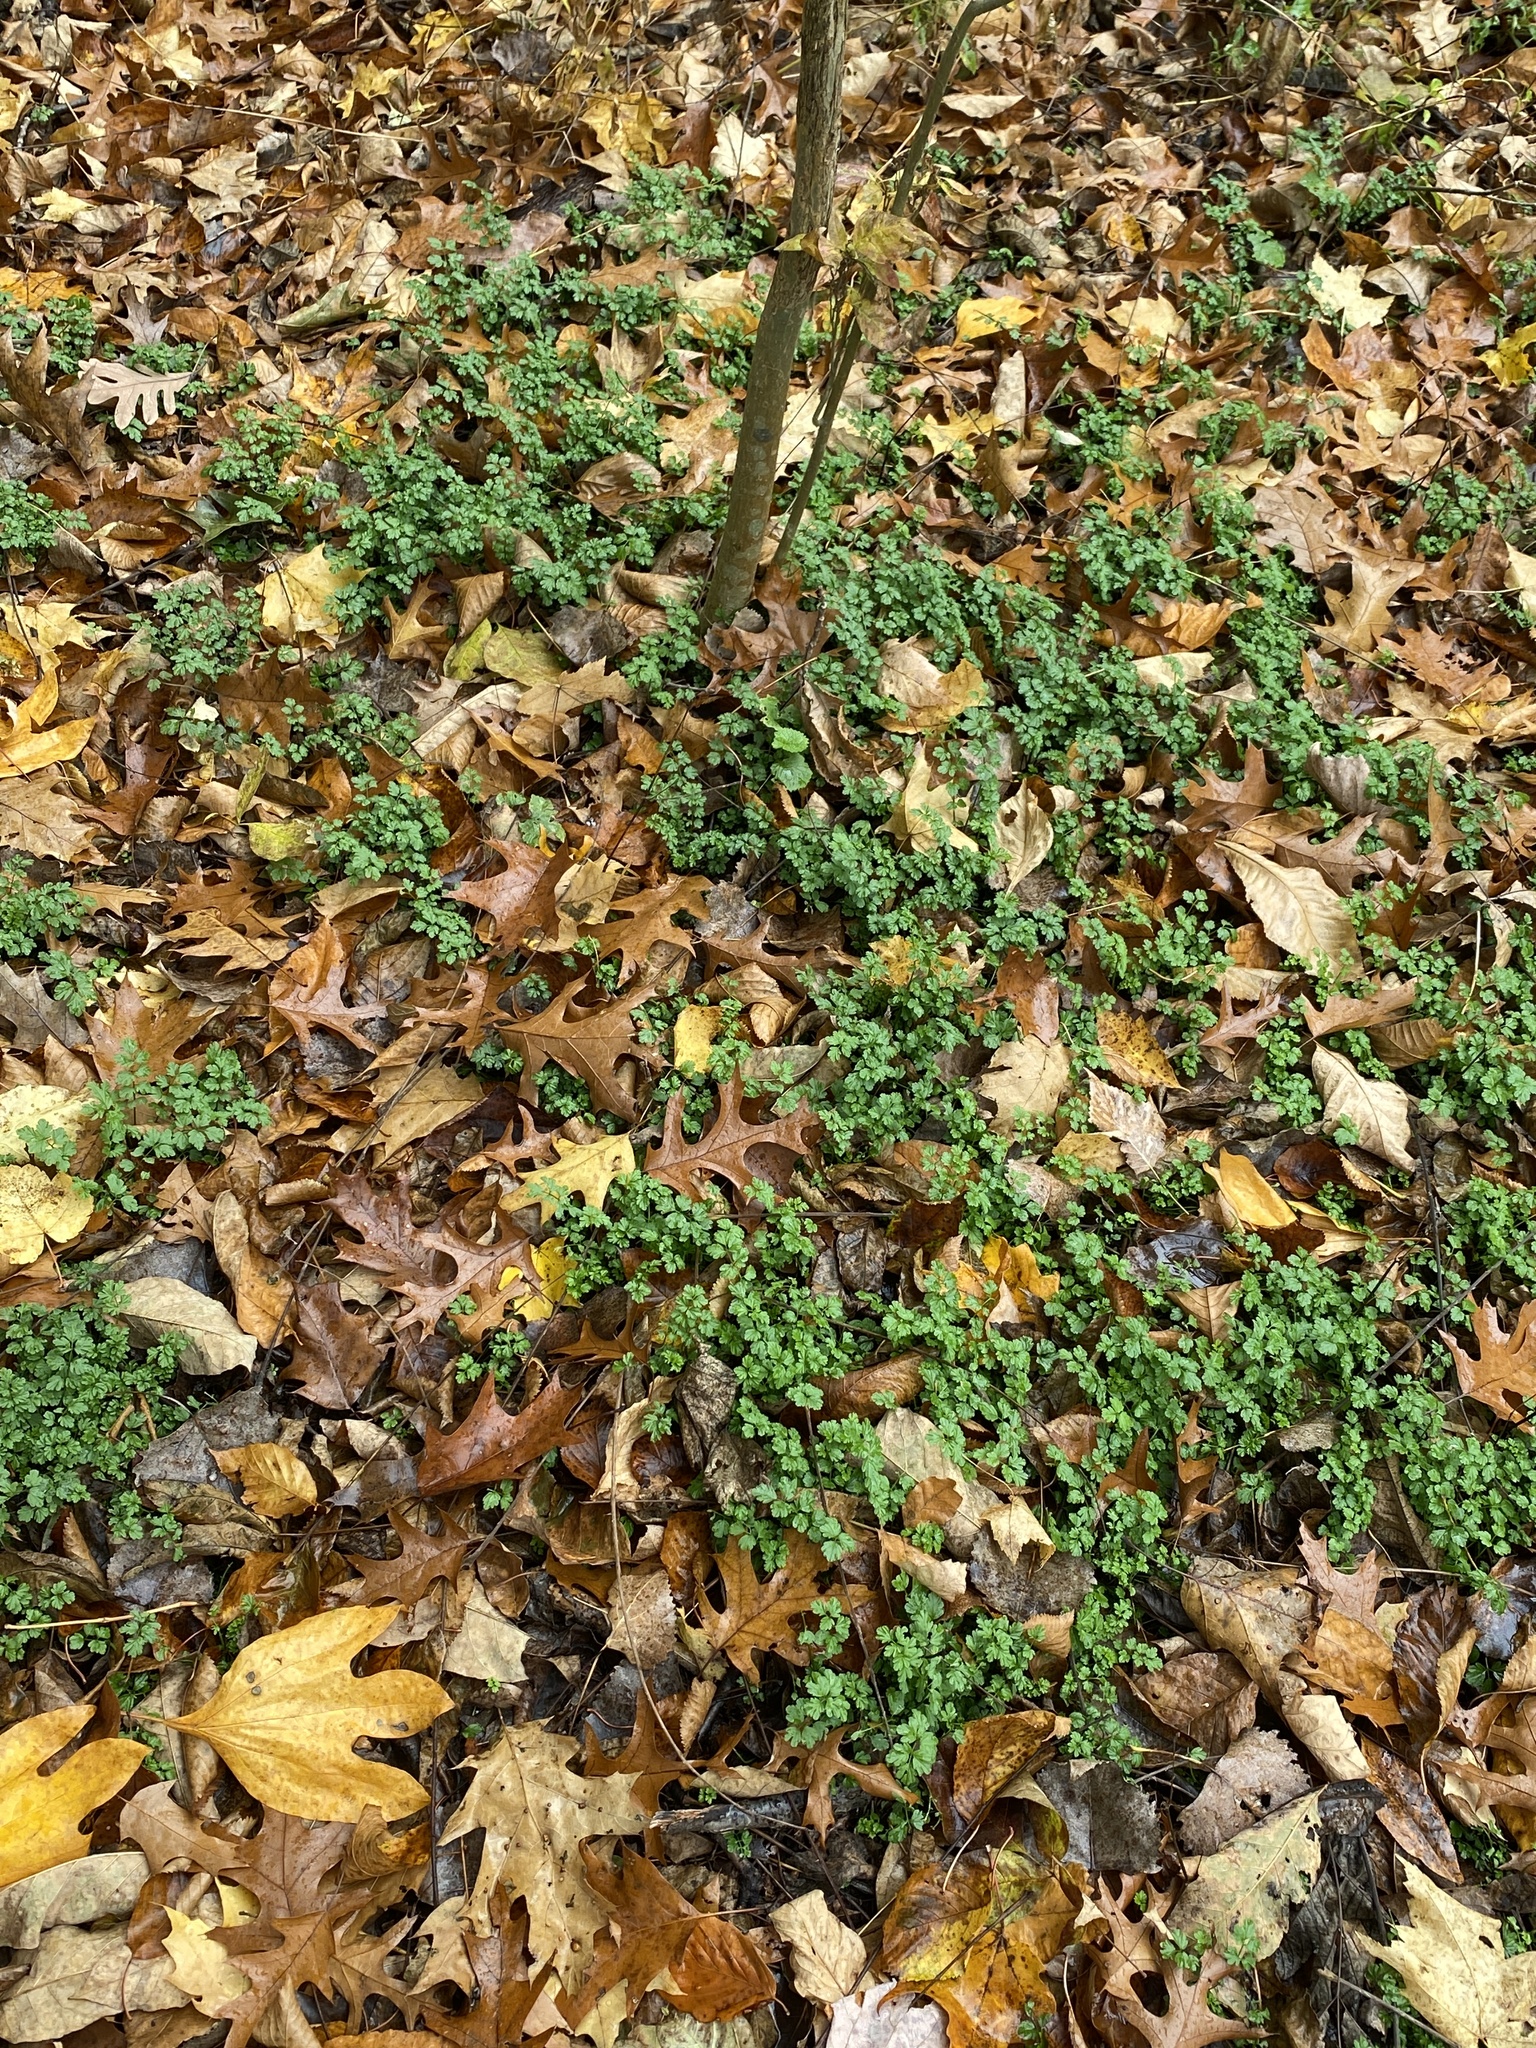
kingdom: Plantae
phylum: Tracheophyta
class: Magnoliopsida
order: Brassicales
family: Brassicaceae
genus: Cardamine
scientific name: Cardamine impatiens
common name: Narrow-leaved bitter-cress
